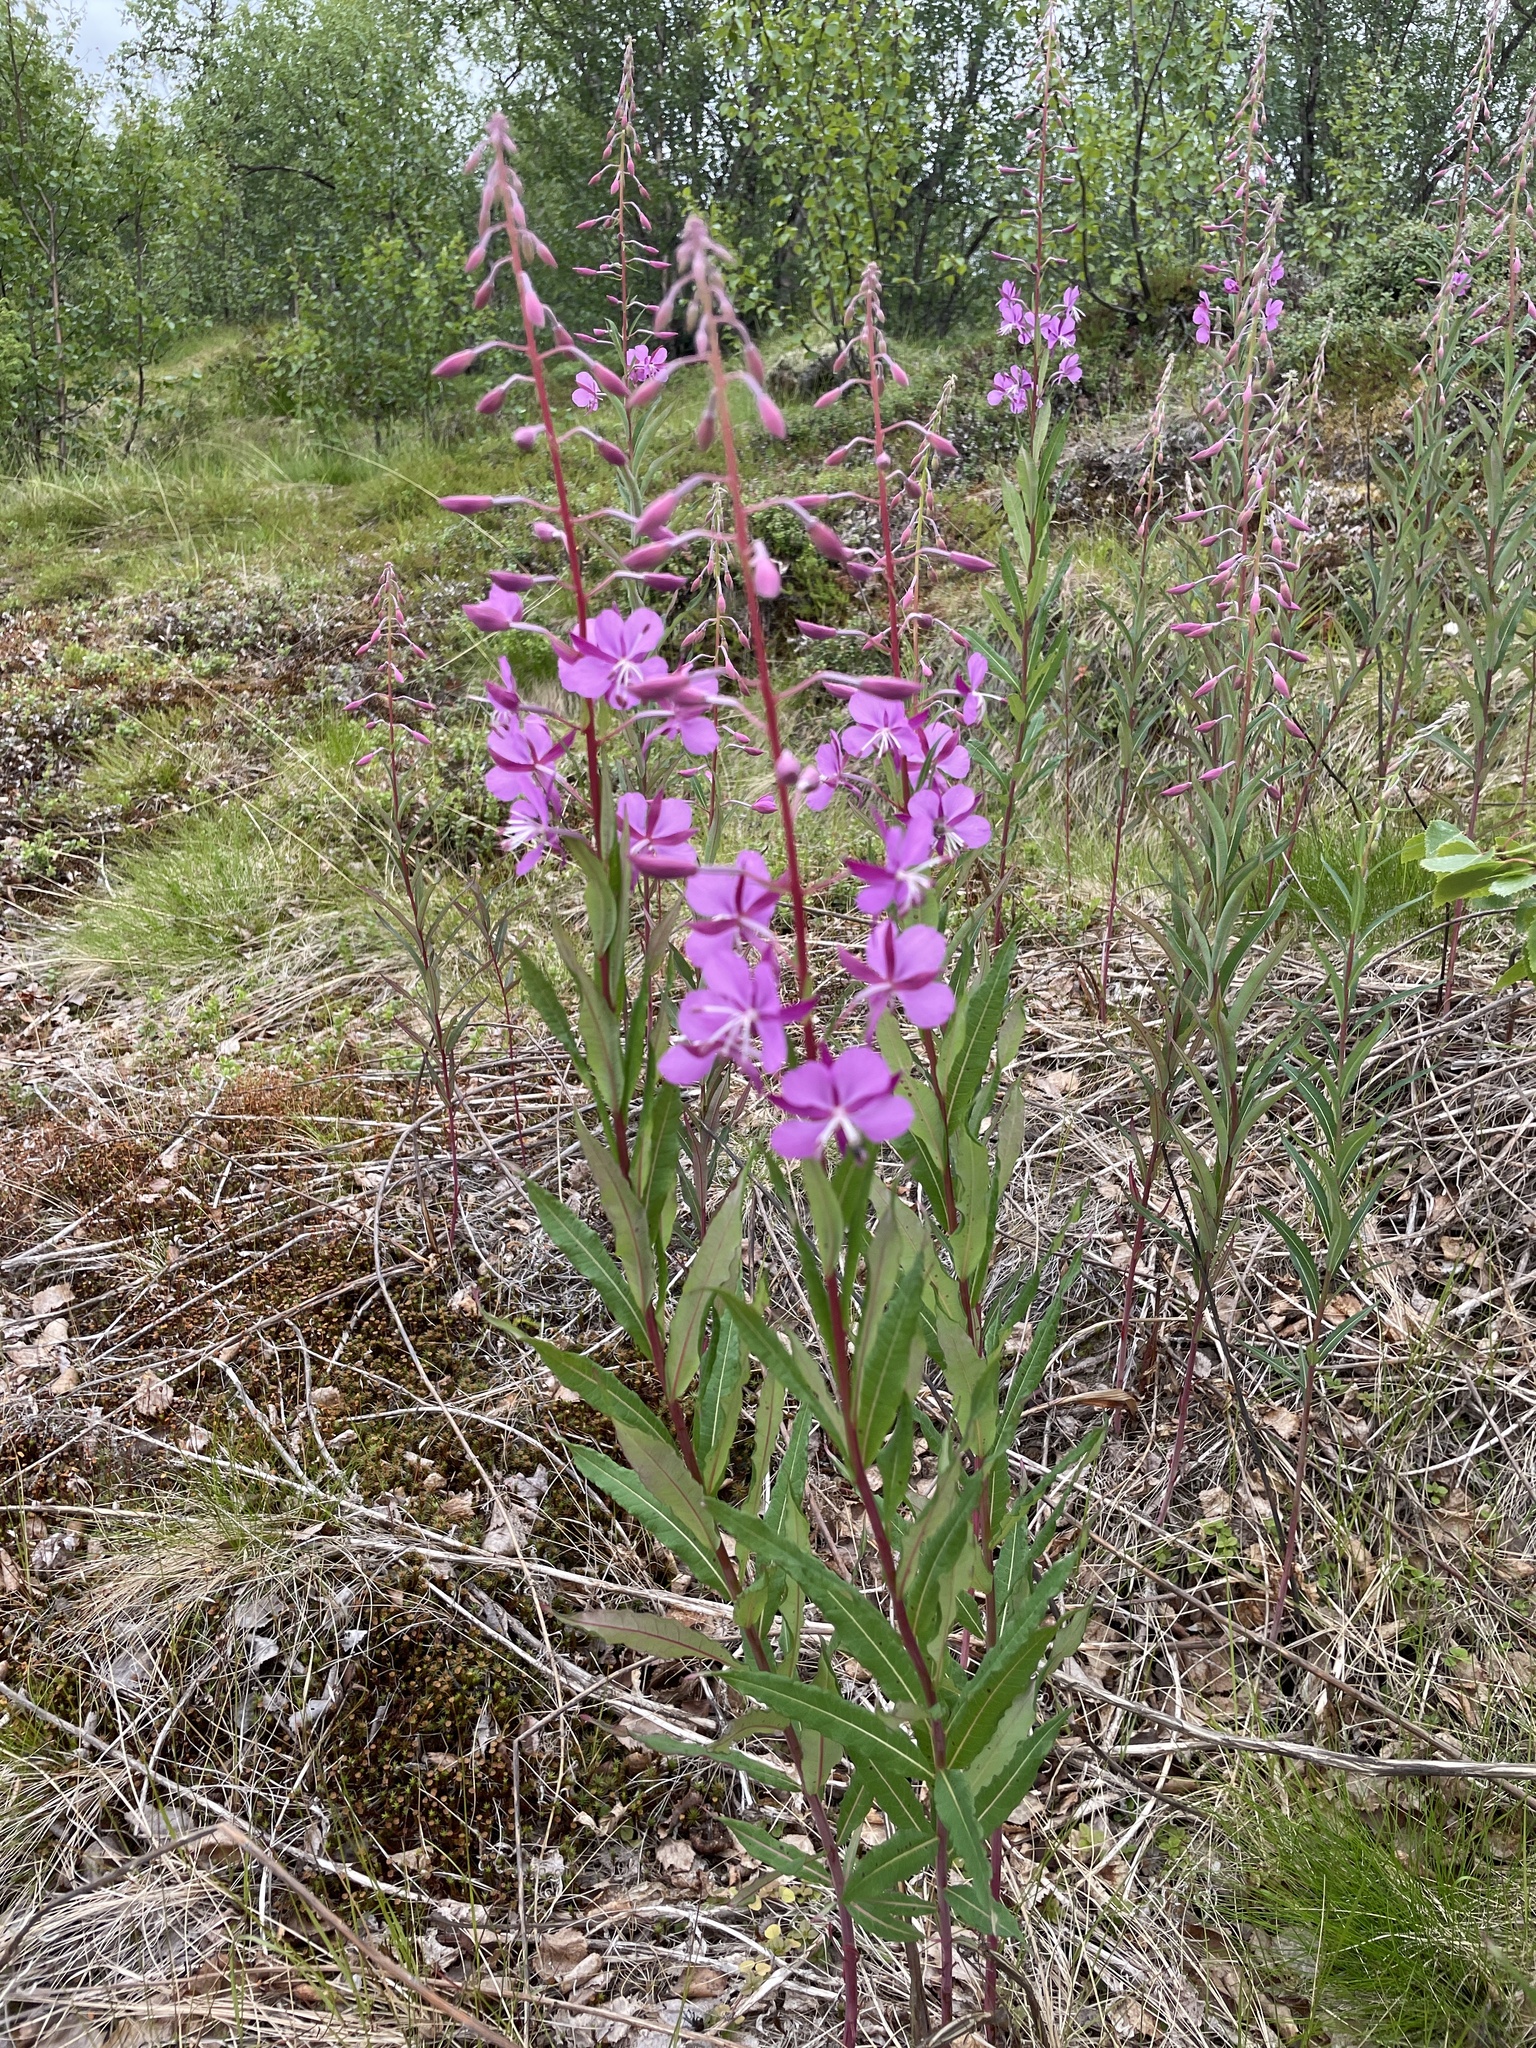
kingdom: Plantae
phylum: Tracheophyta
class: Magnoliopsida
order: Myrtales
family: Onagraceae
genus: Chamaenerion
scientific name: Chamaenerion angustifolium
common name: Fireweed
